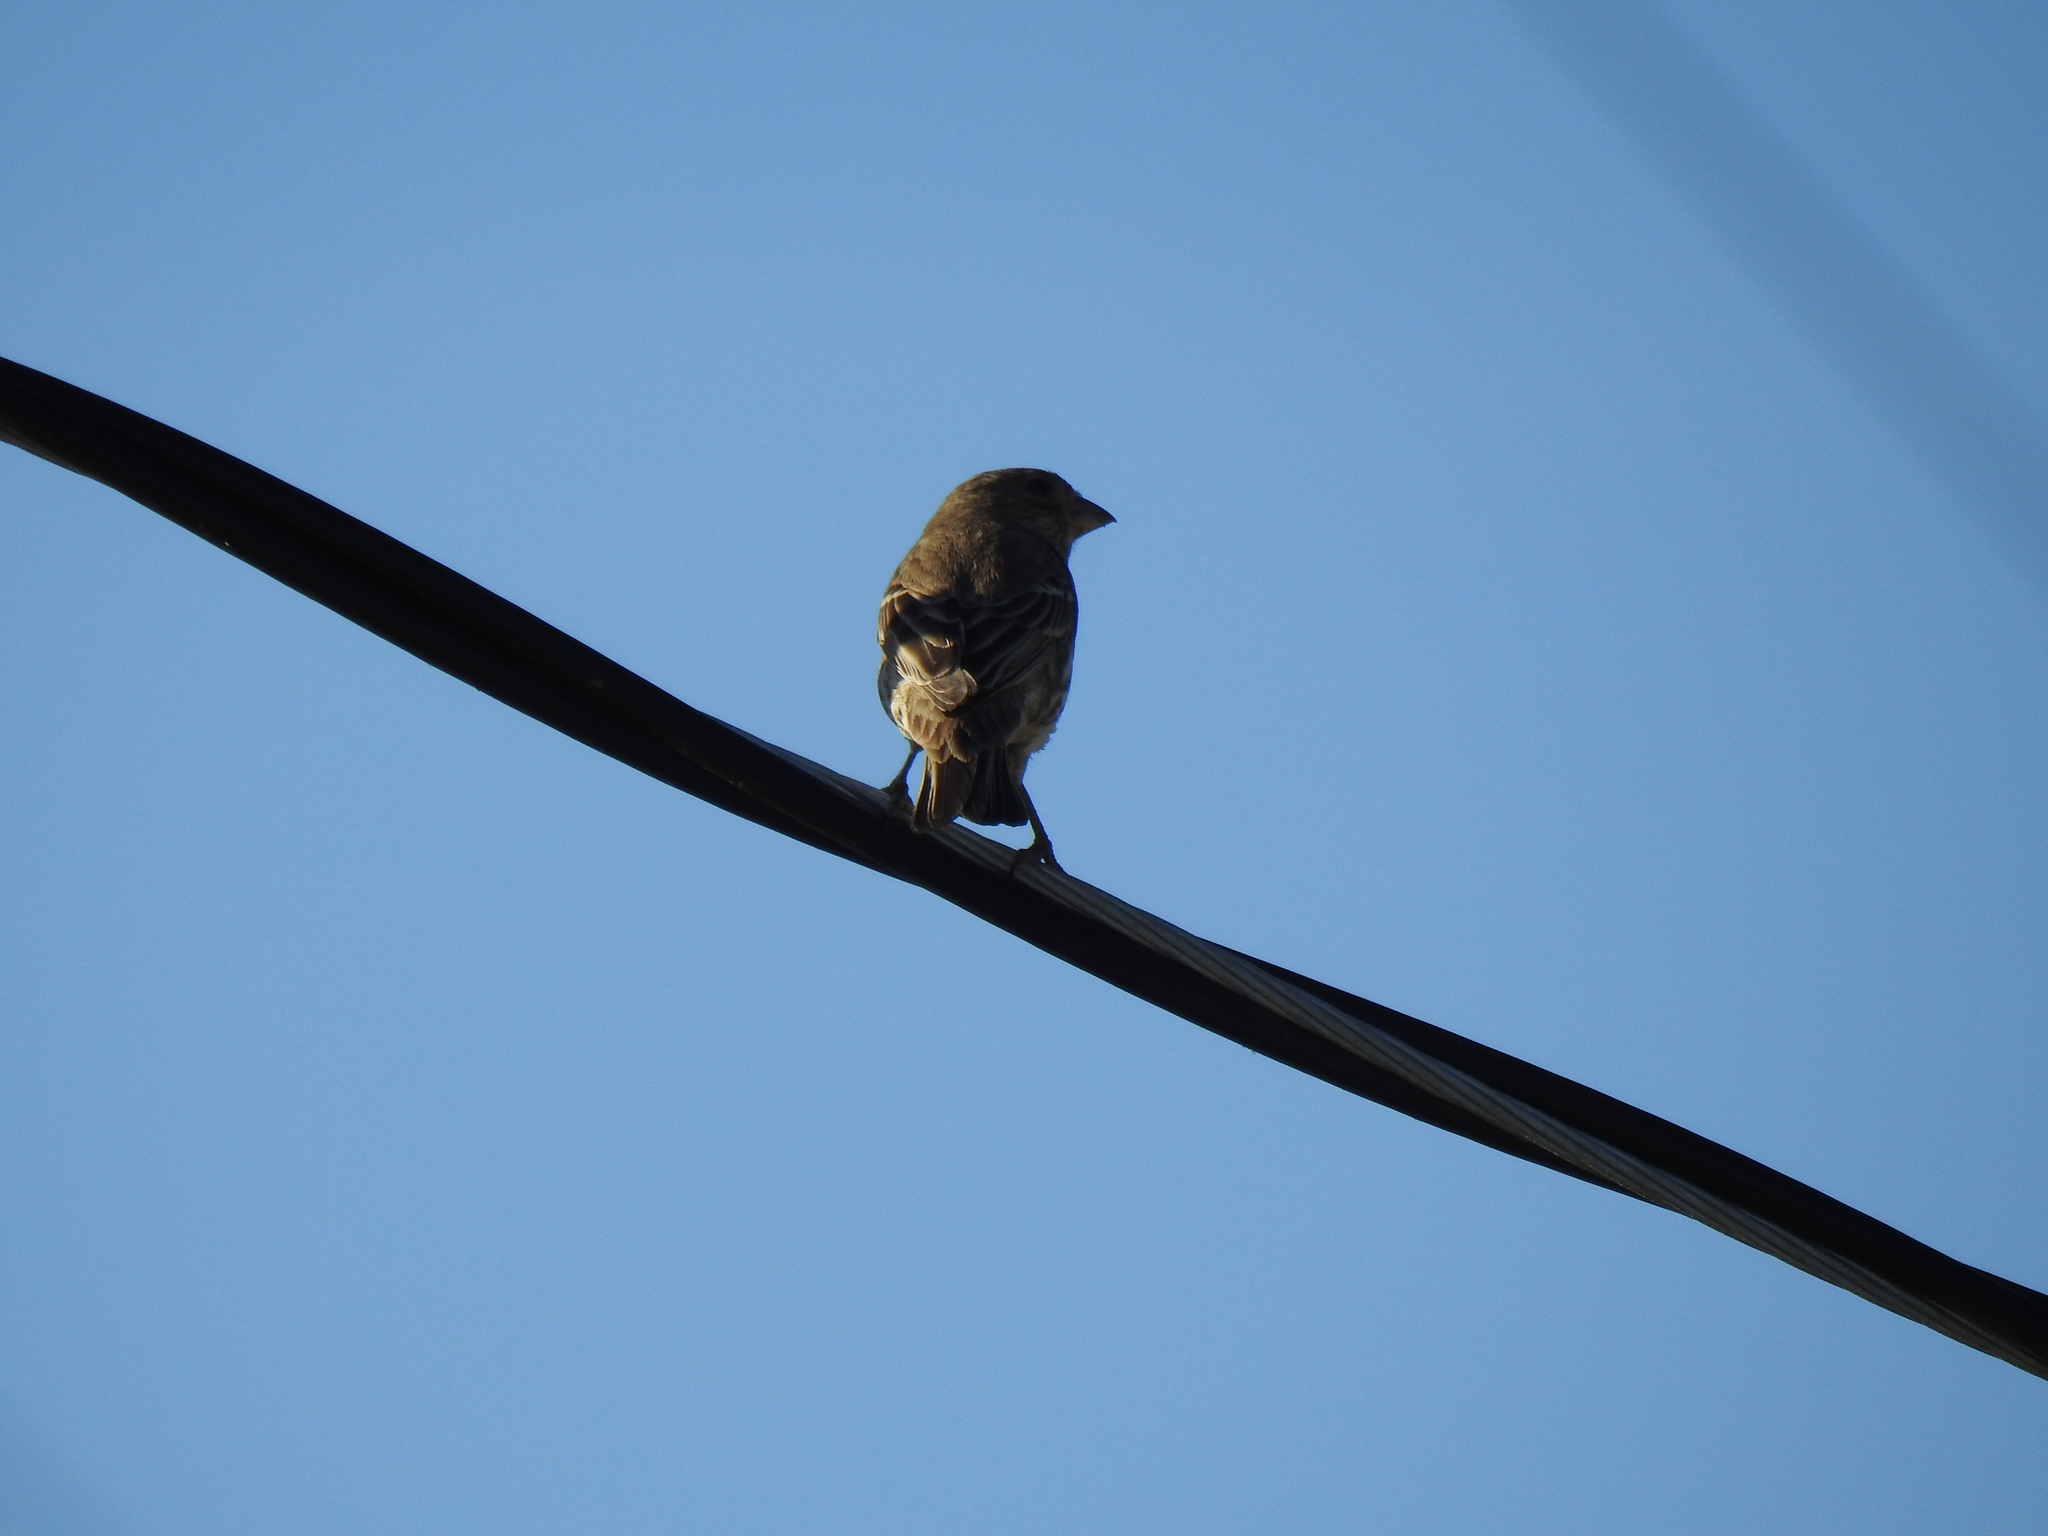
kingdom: Animalia
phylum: Chordata
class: Aves
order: Passeriformes
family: Fringillidae
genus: Haemorhous
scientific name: Haemorhous mexicanus
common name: House finch
